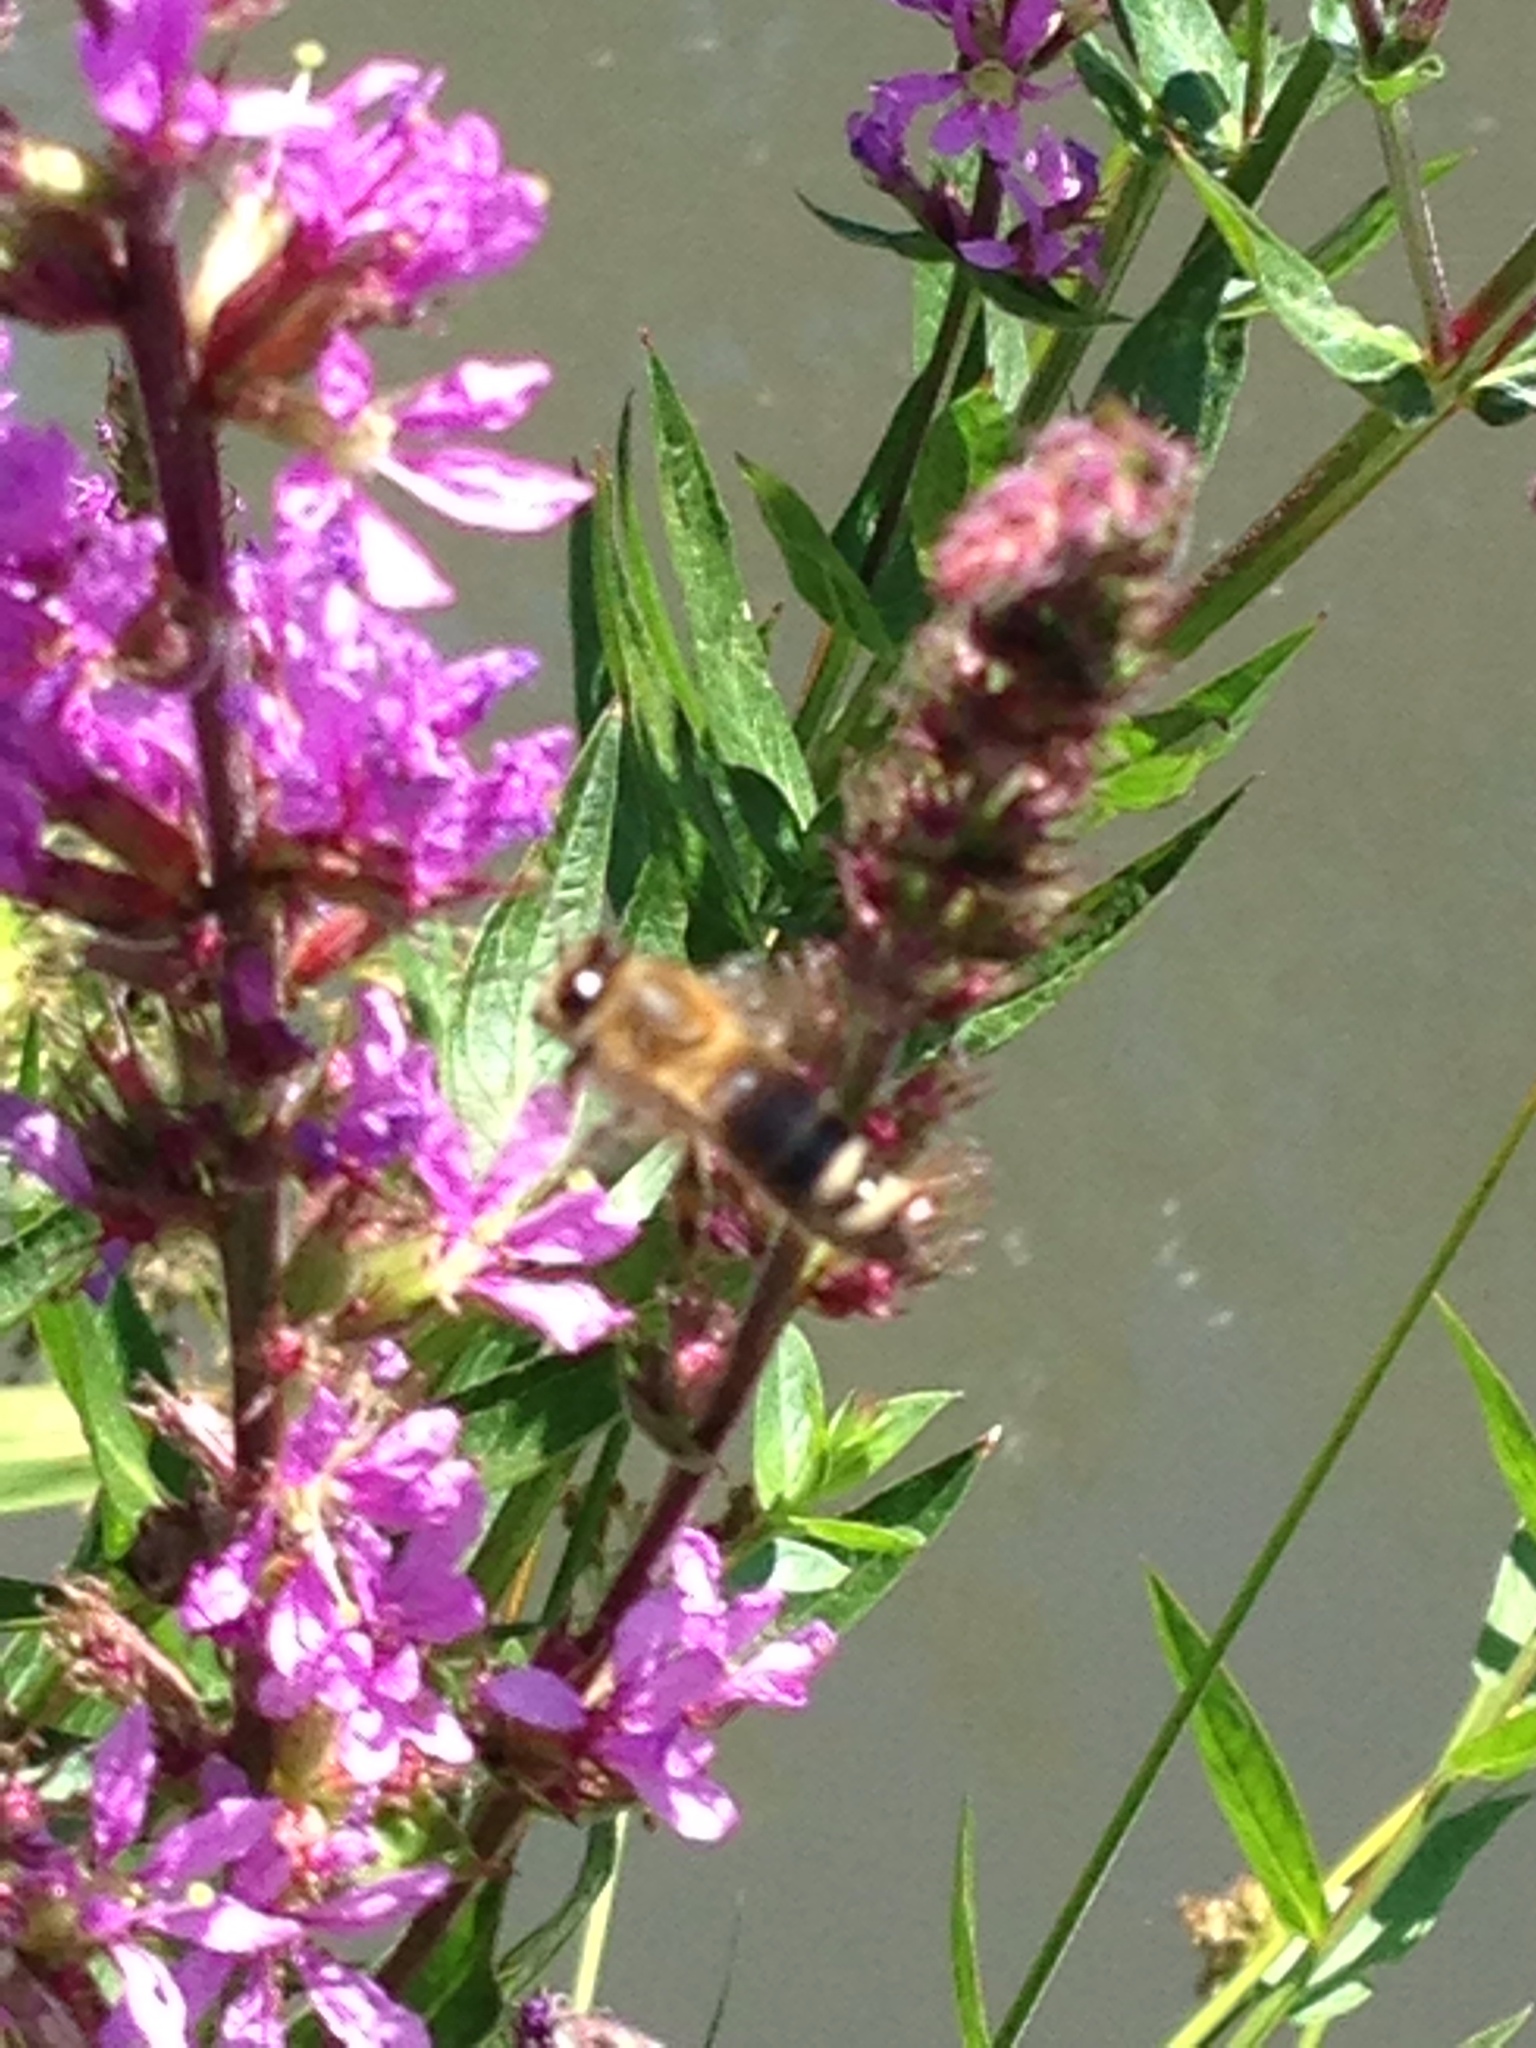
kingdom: Animalia
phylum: Arthropoda
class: Insecta
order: Hymenoptera
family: Apidae
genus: Apis
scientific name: Apis mellifera
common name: Honey bee
